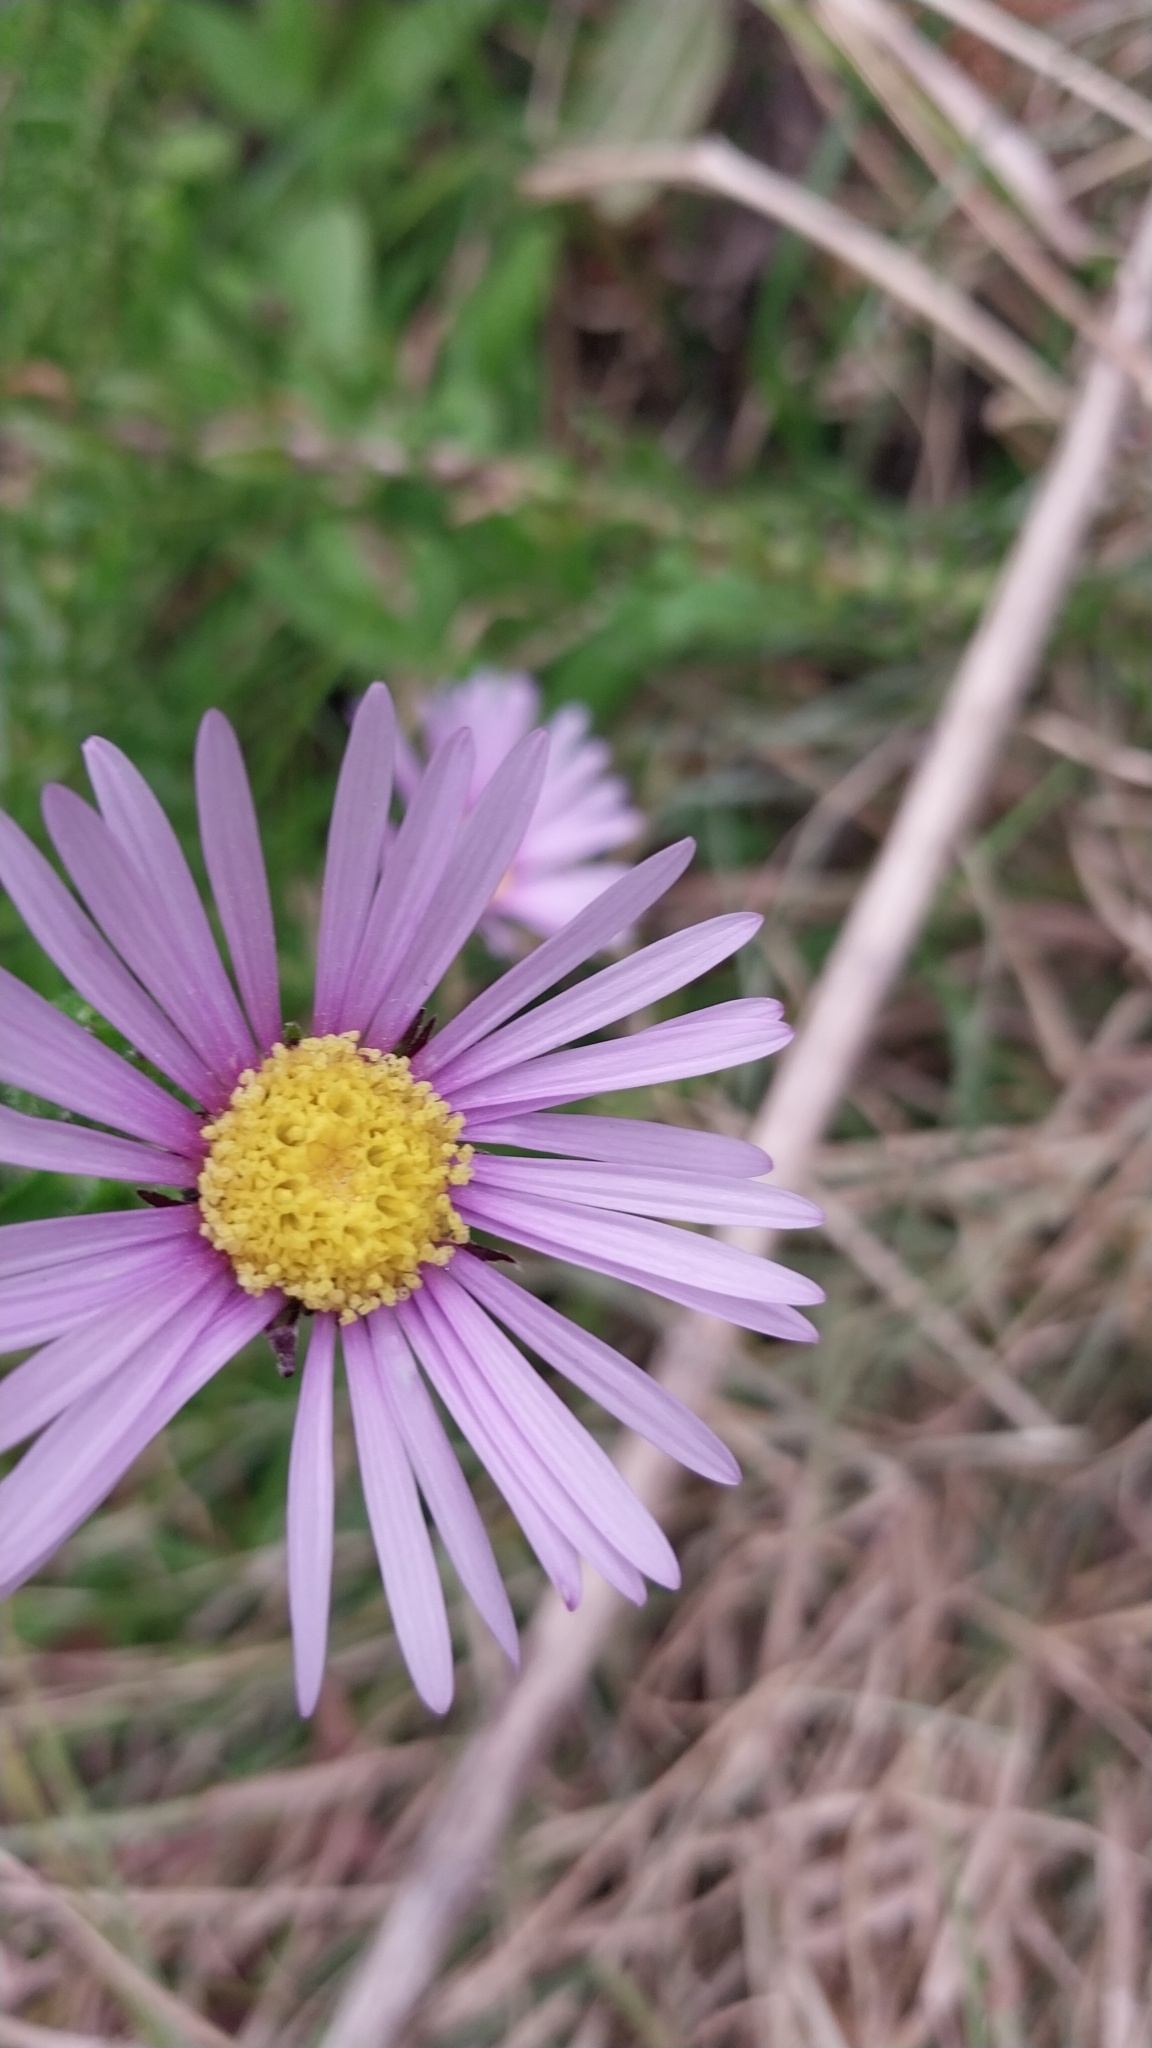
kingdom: Plantae
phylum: Tracheophyta
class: Magnoliopsida
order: Asterales
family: Asteraceae
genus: Felicia
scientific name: Felicia echinata
